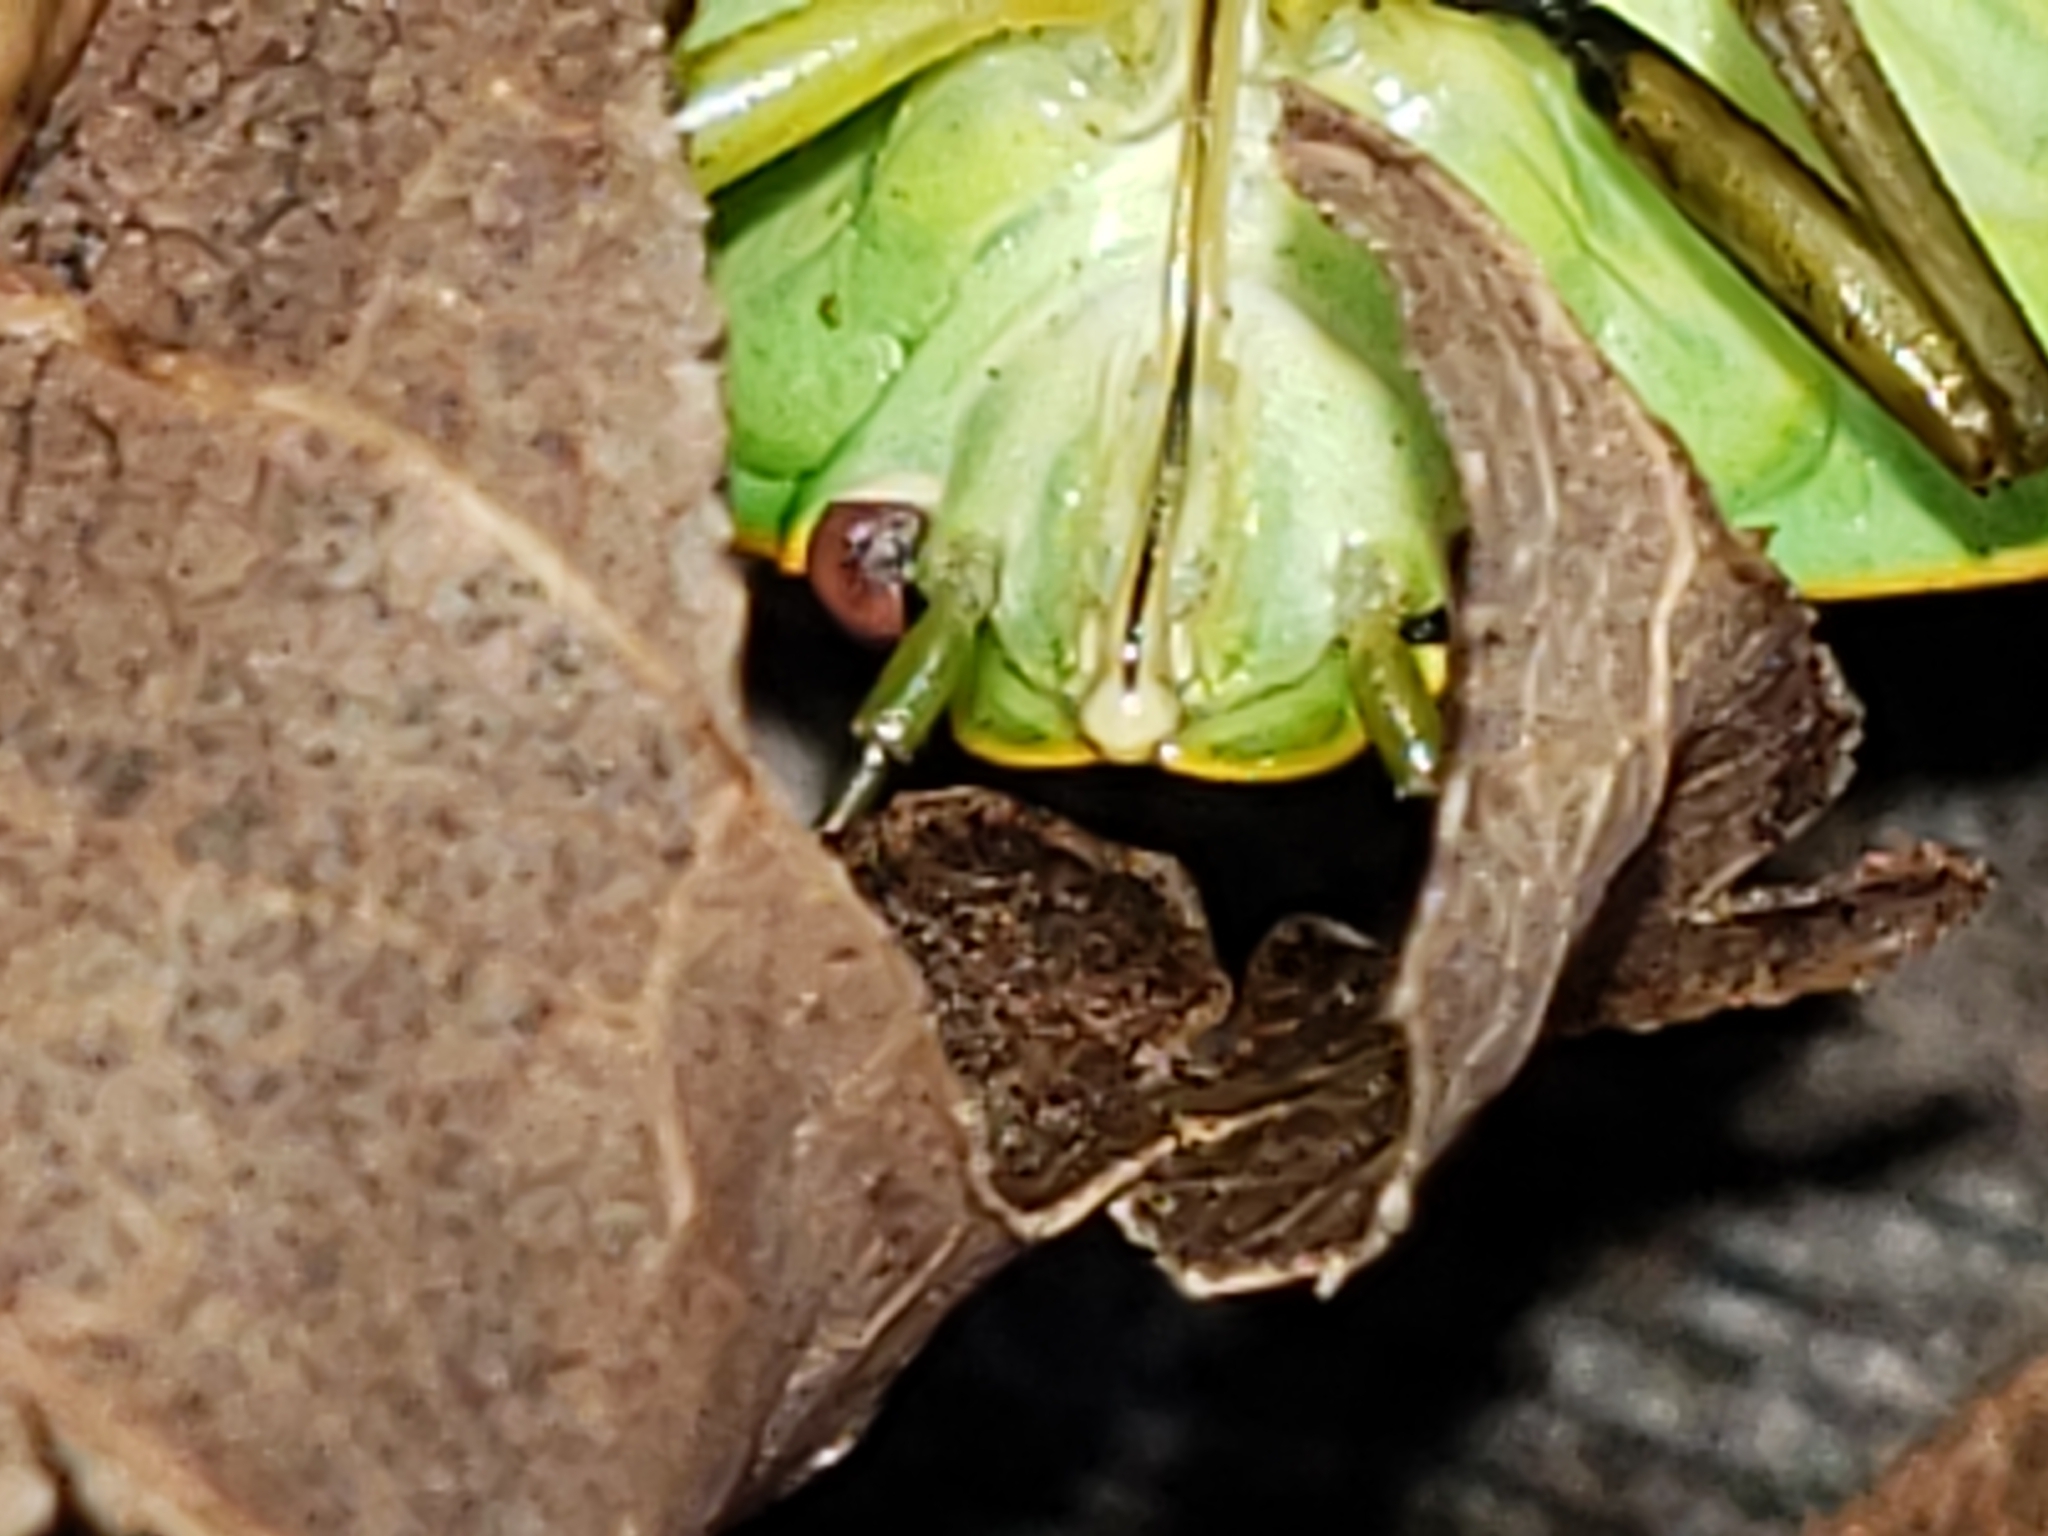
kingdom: Animalia
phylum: Arthropoda
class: Insecta
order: Hemiptera
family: Pentatomidae
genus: Chinavia
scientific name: Chinavia hilaris
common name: Green stink bug
